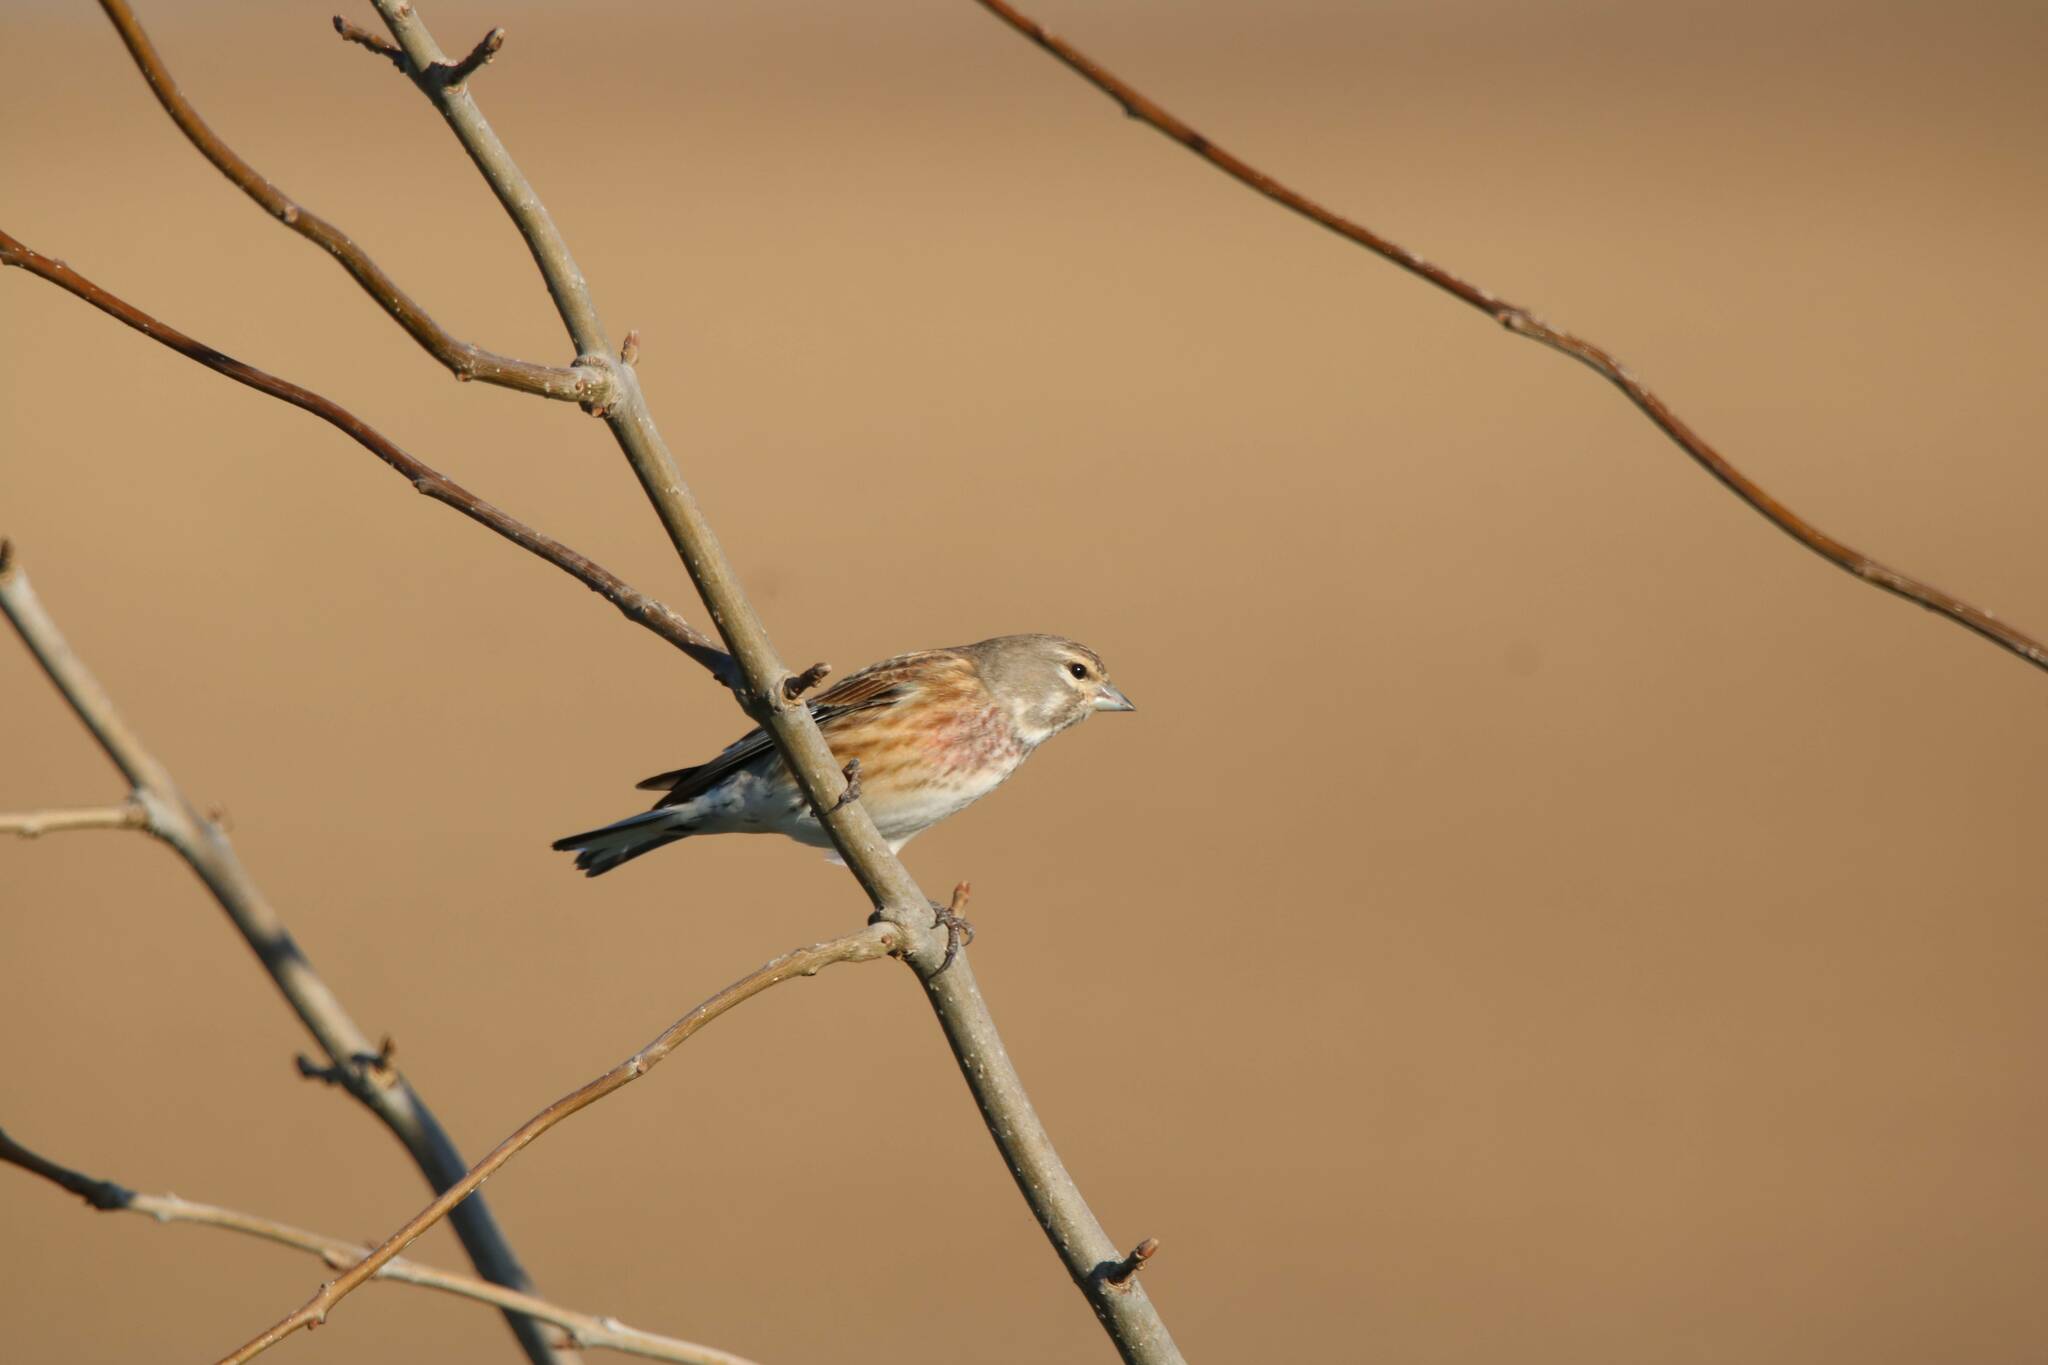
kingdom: Animalia
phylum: Chordata
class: Aves
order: Passeriformes
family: Fringillidae
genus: Linaria
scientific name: Linaria cannabina
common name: Common linnet
